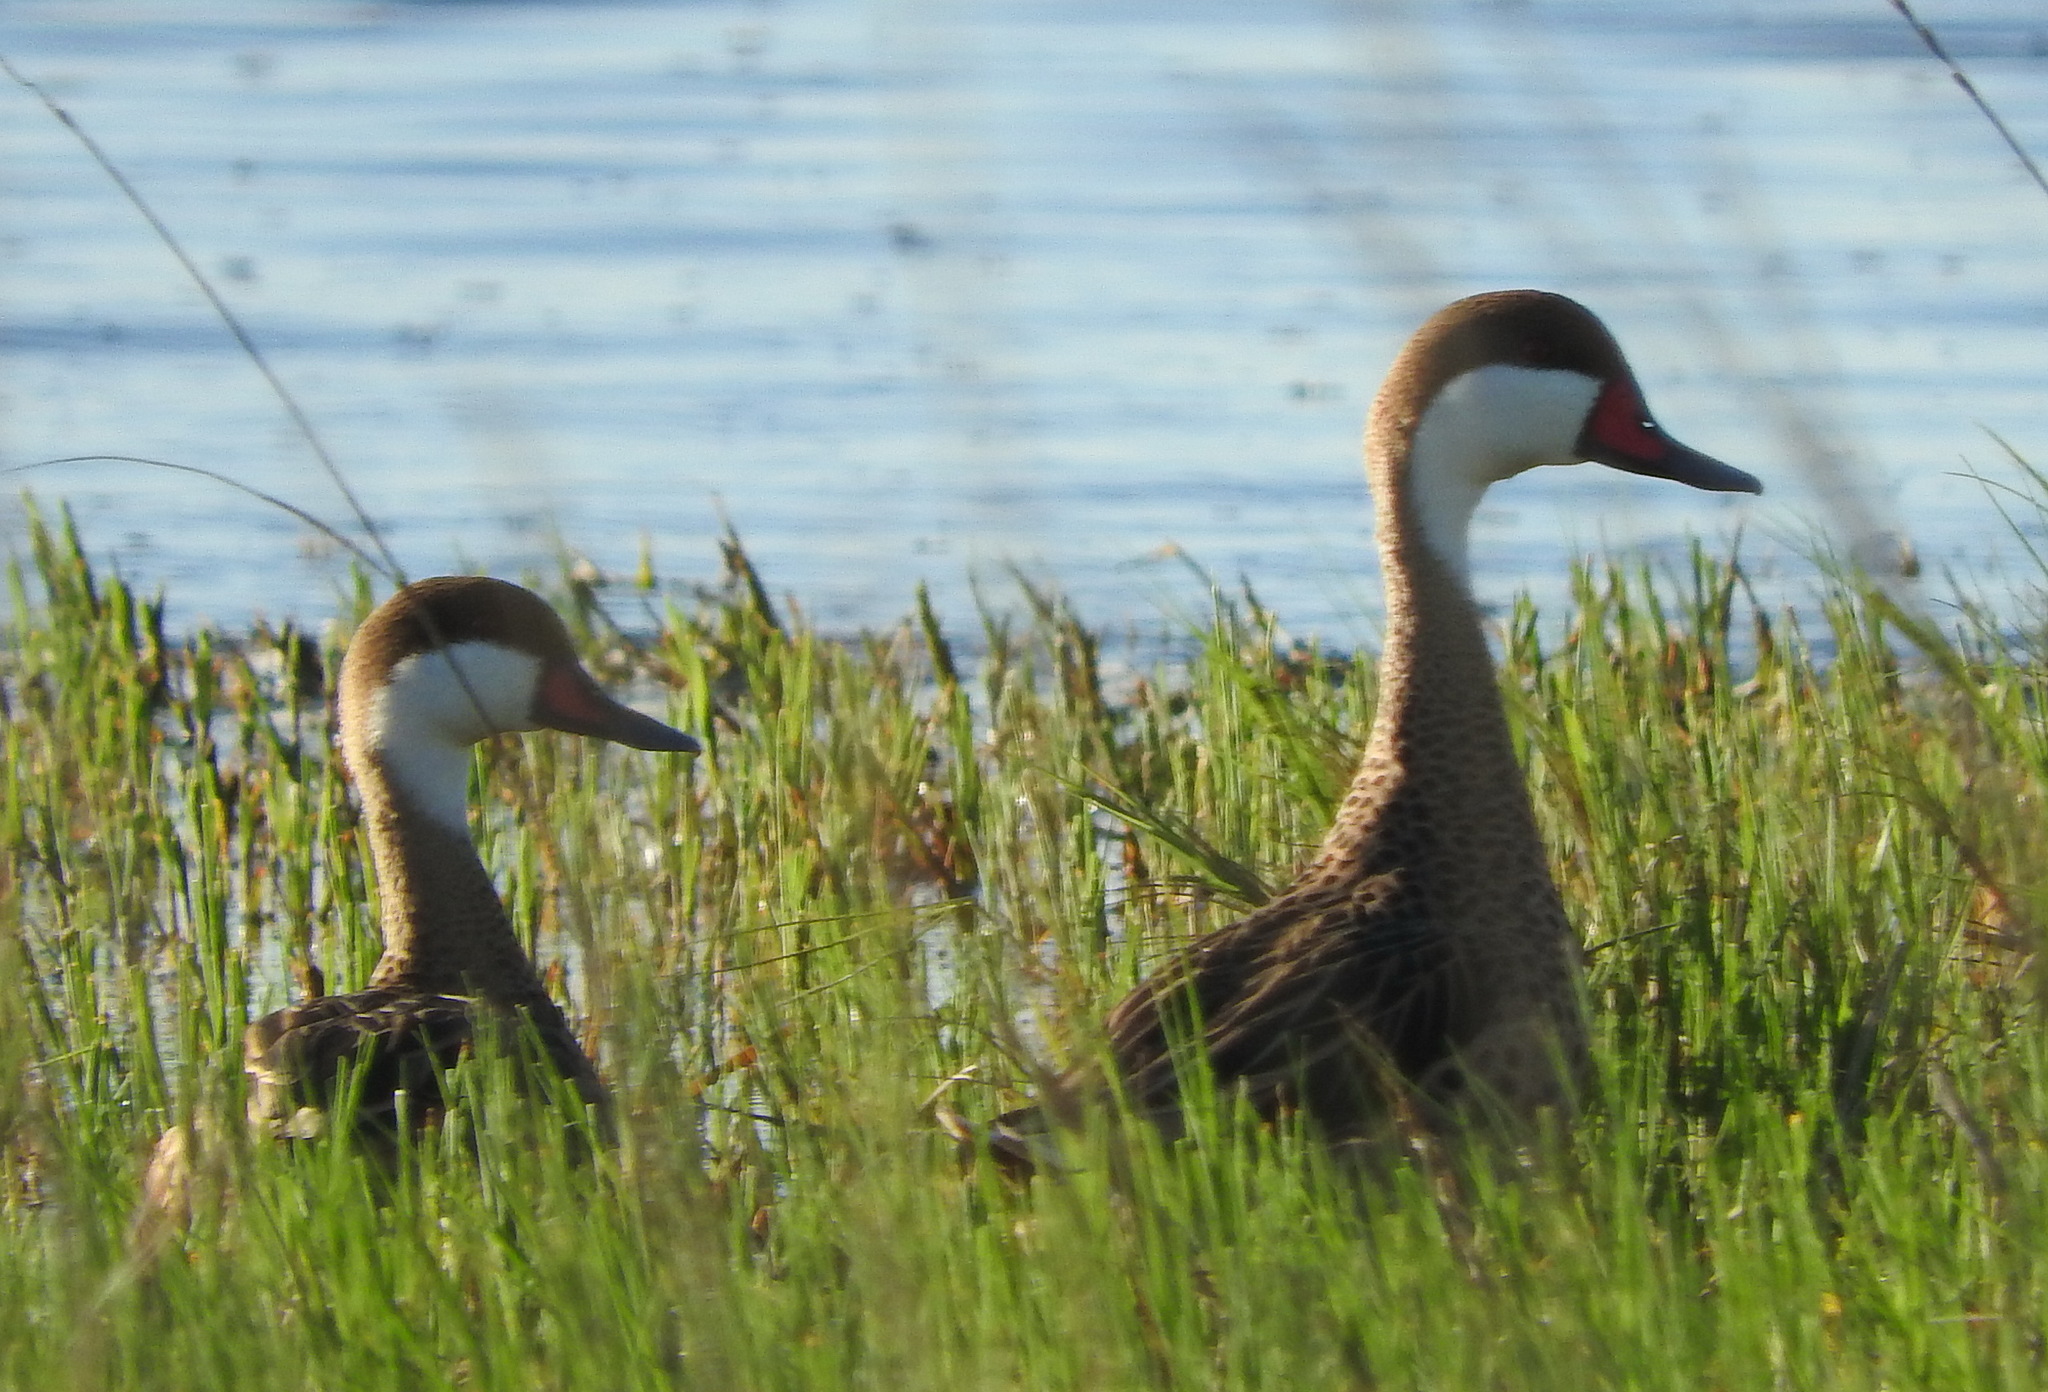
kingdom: Animalia
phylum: Chordata
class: Aves
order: Anseriformes
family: Anatidae
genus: Anas
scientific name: Anas bahamensis
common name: White-cheeked pintail
